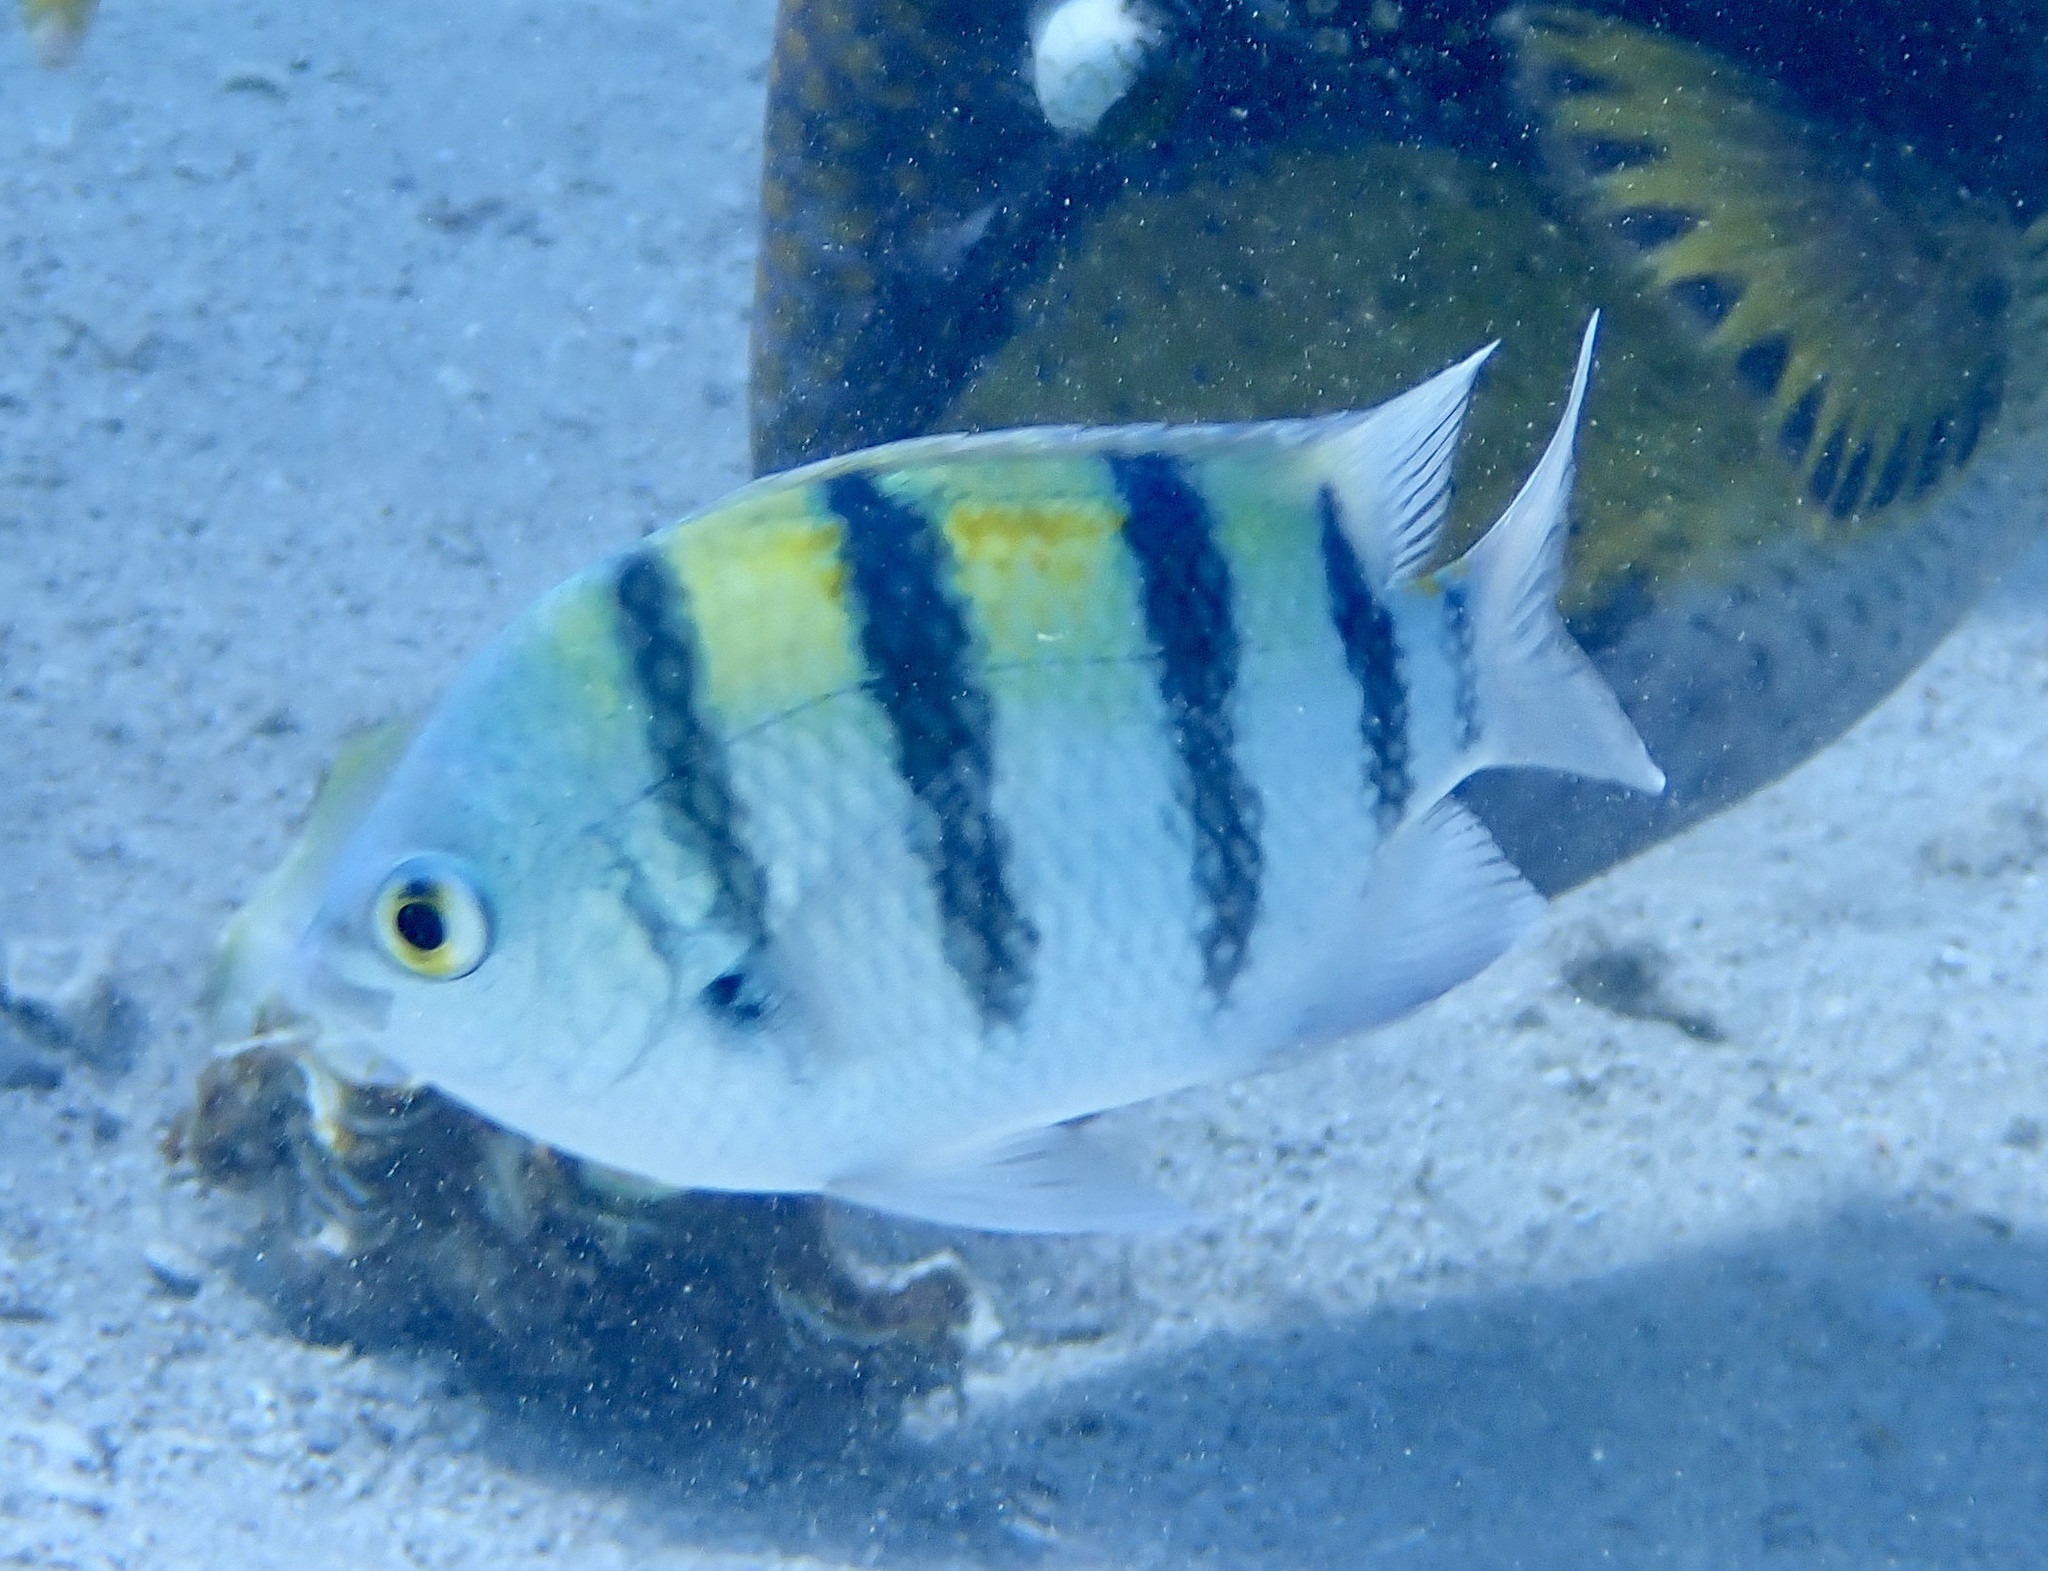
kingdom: Animalia
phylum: Chordata
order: Perciformes
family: Pomacentridae
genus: Abudefduf
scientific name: Abudefduf vaigiensis
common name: Indo-pacific sergeant
